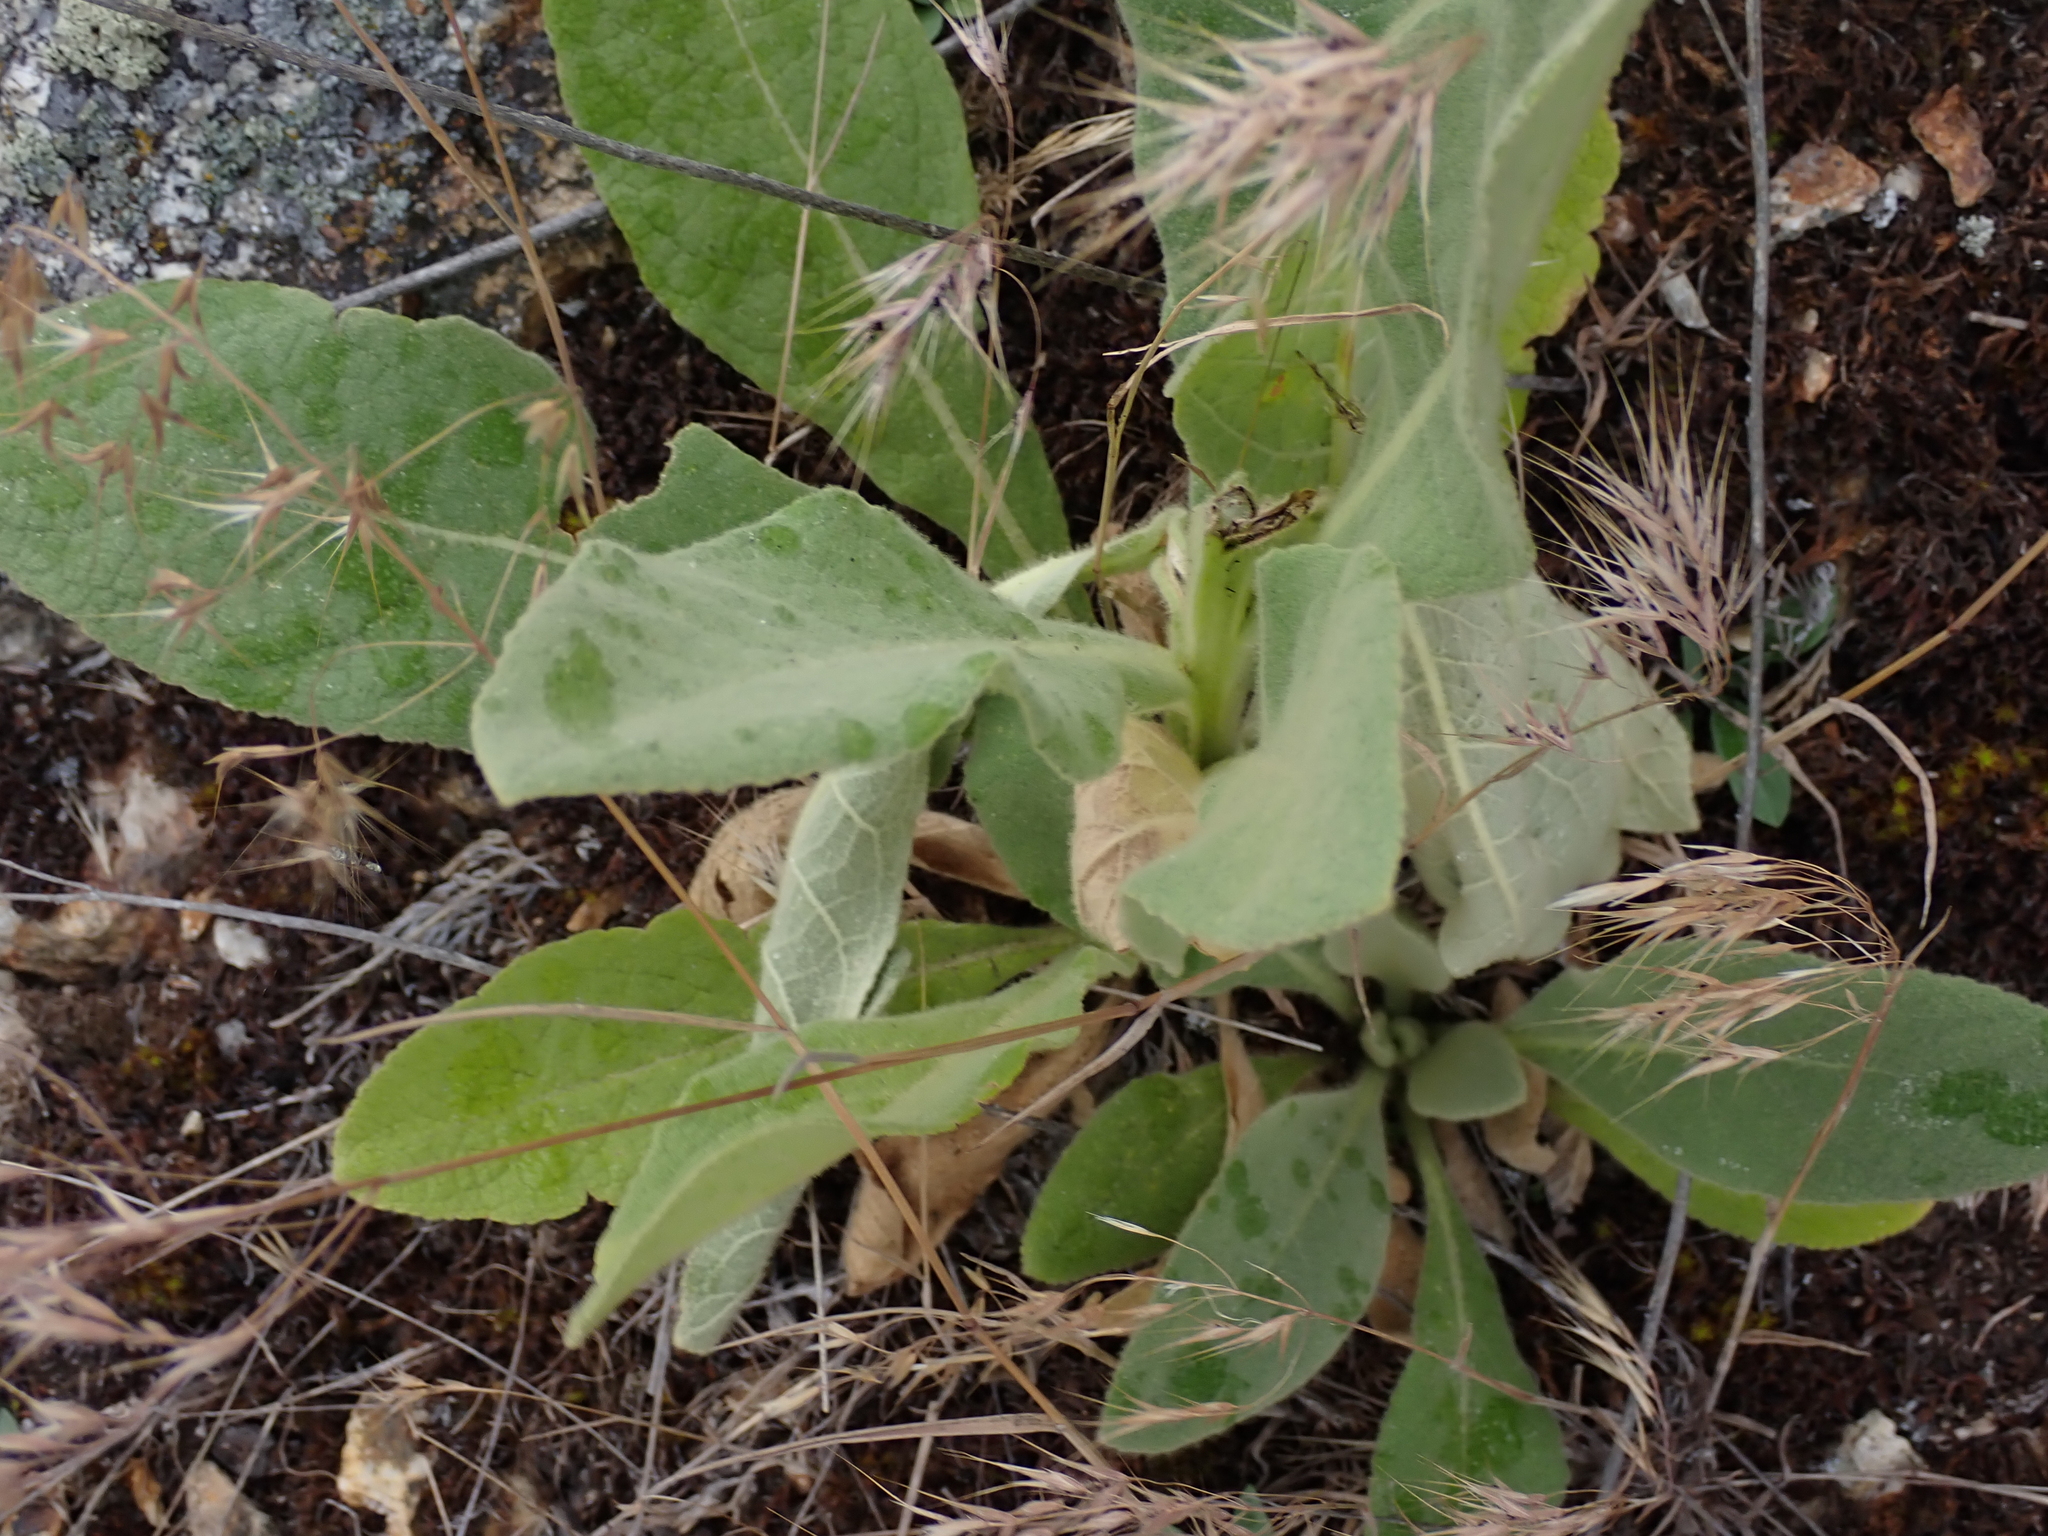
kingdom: Plantae
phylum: Tracheophyta
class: Magnoliopsida
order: Lamiales
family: Scrophulariaceae
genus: Verbascum
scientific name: Verbascum thapsus
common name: Common mullein
